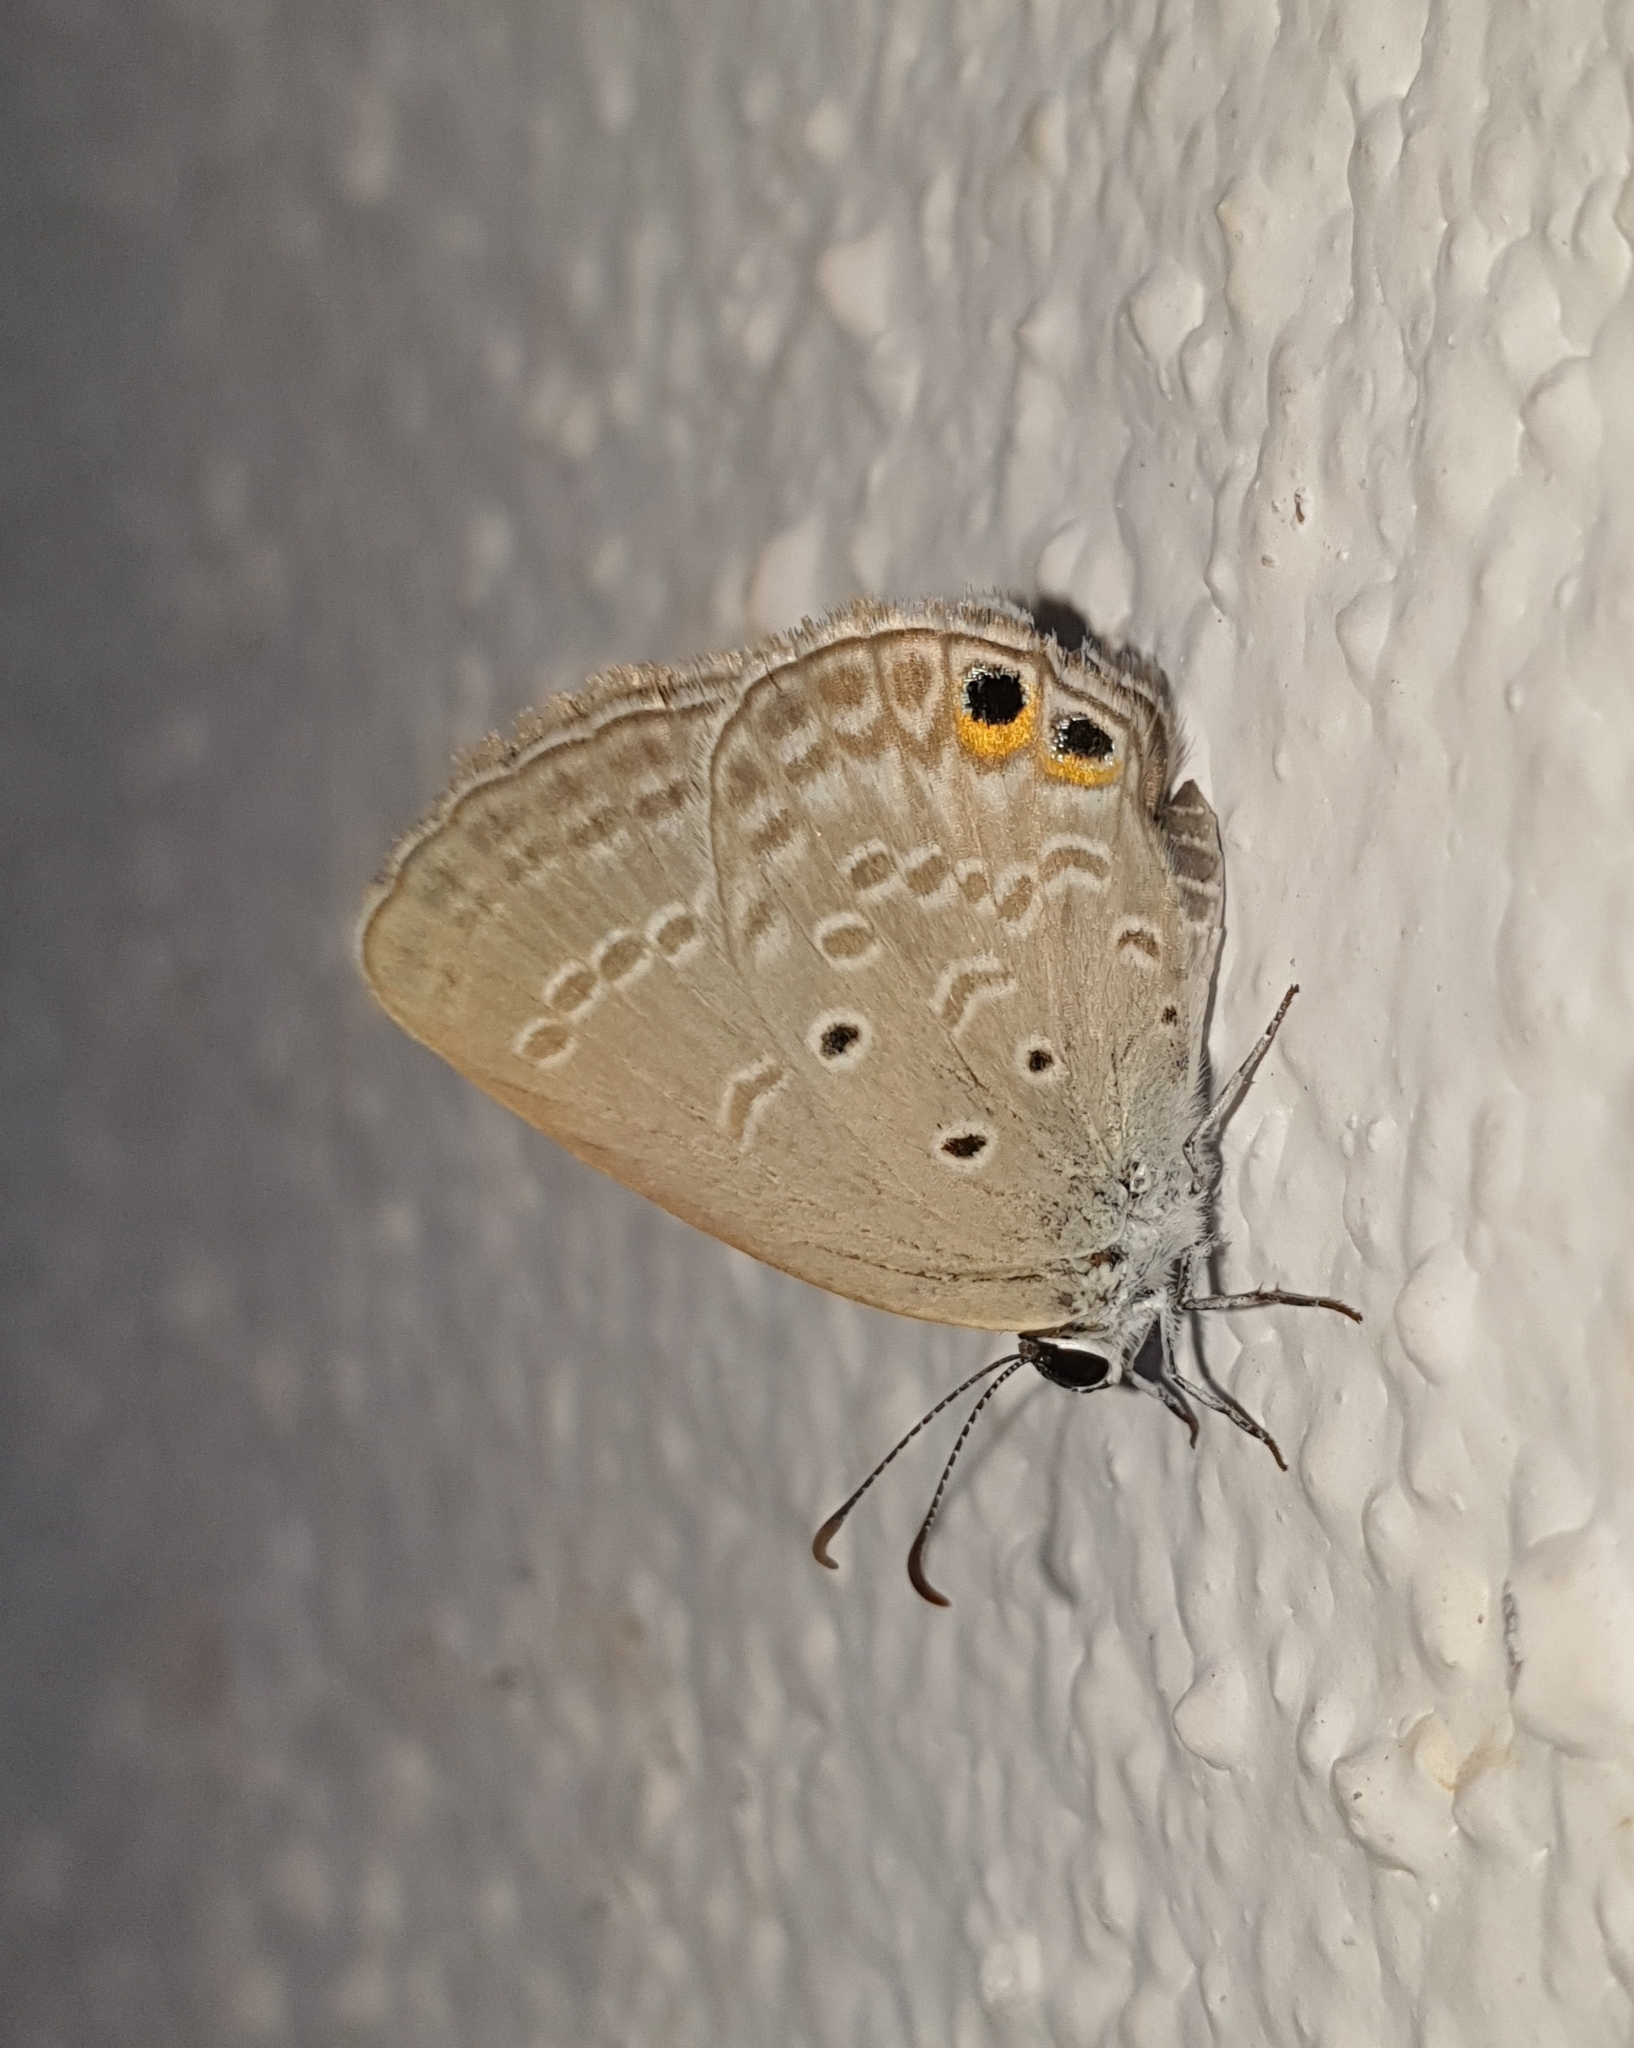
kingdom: Animalia
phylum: Arthropoda
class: Insecta
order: Lepidoptera
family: Lycaenidae
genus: Euchrysops
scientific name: Euchrysops cnejus
